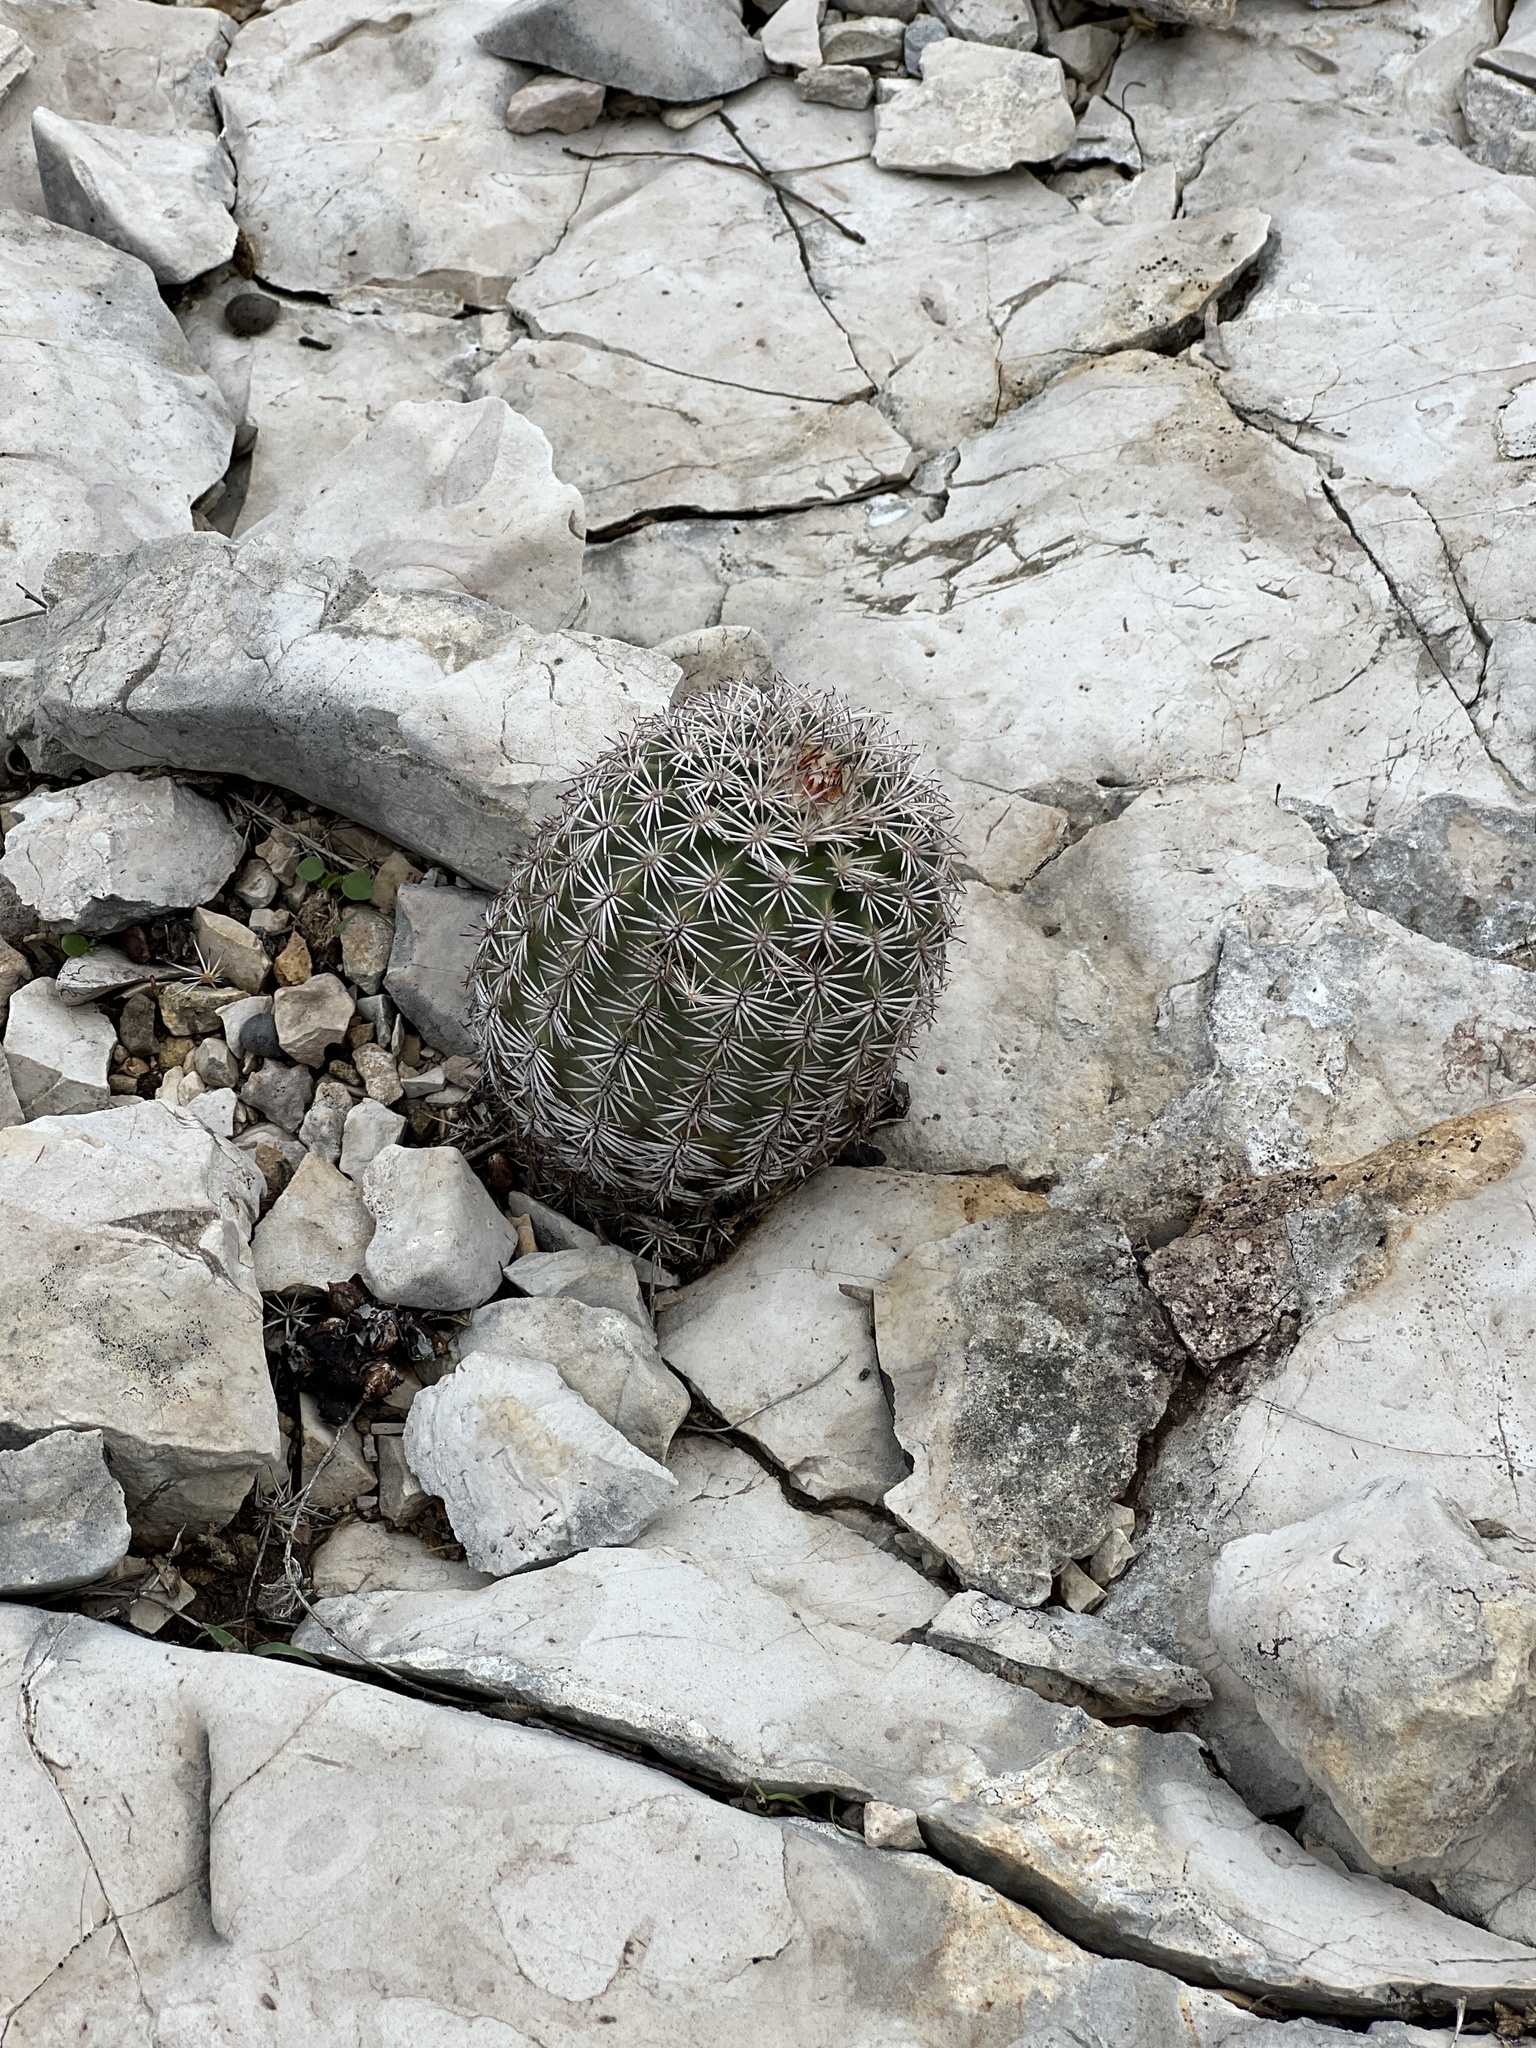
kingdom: Plantae
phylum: Tracheophyta
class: Magnoliopsida
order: Caryophyllales
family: Cactaceae
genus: Echinocereus
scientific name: Echinocereus pectinatus
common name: Rainbow cactus
